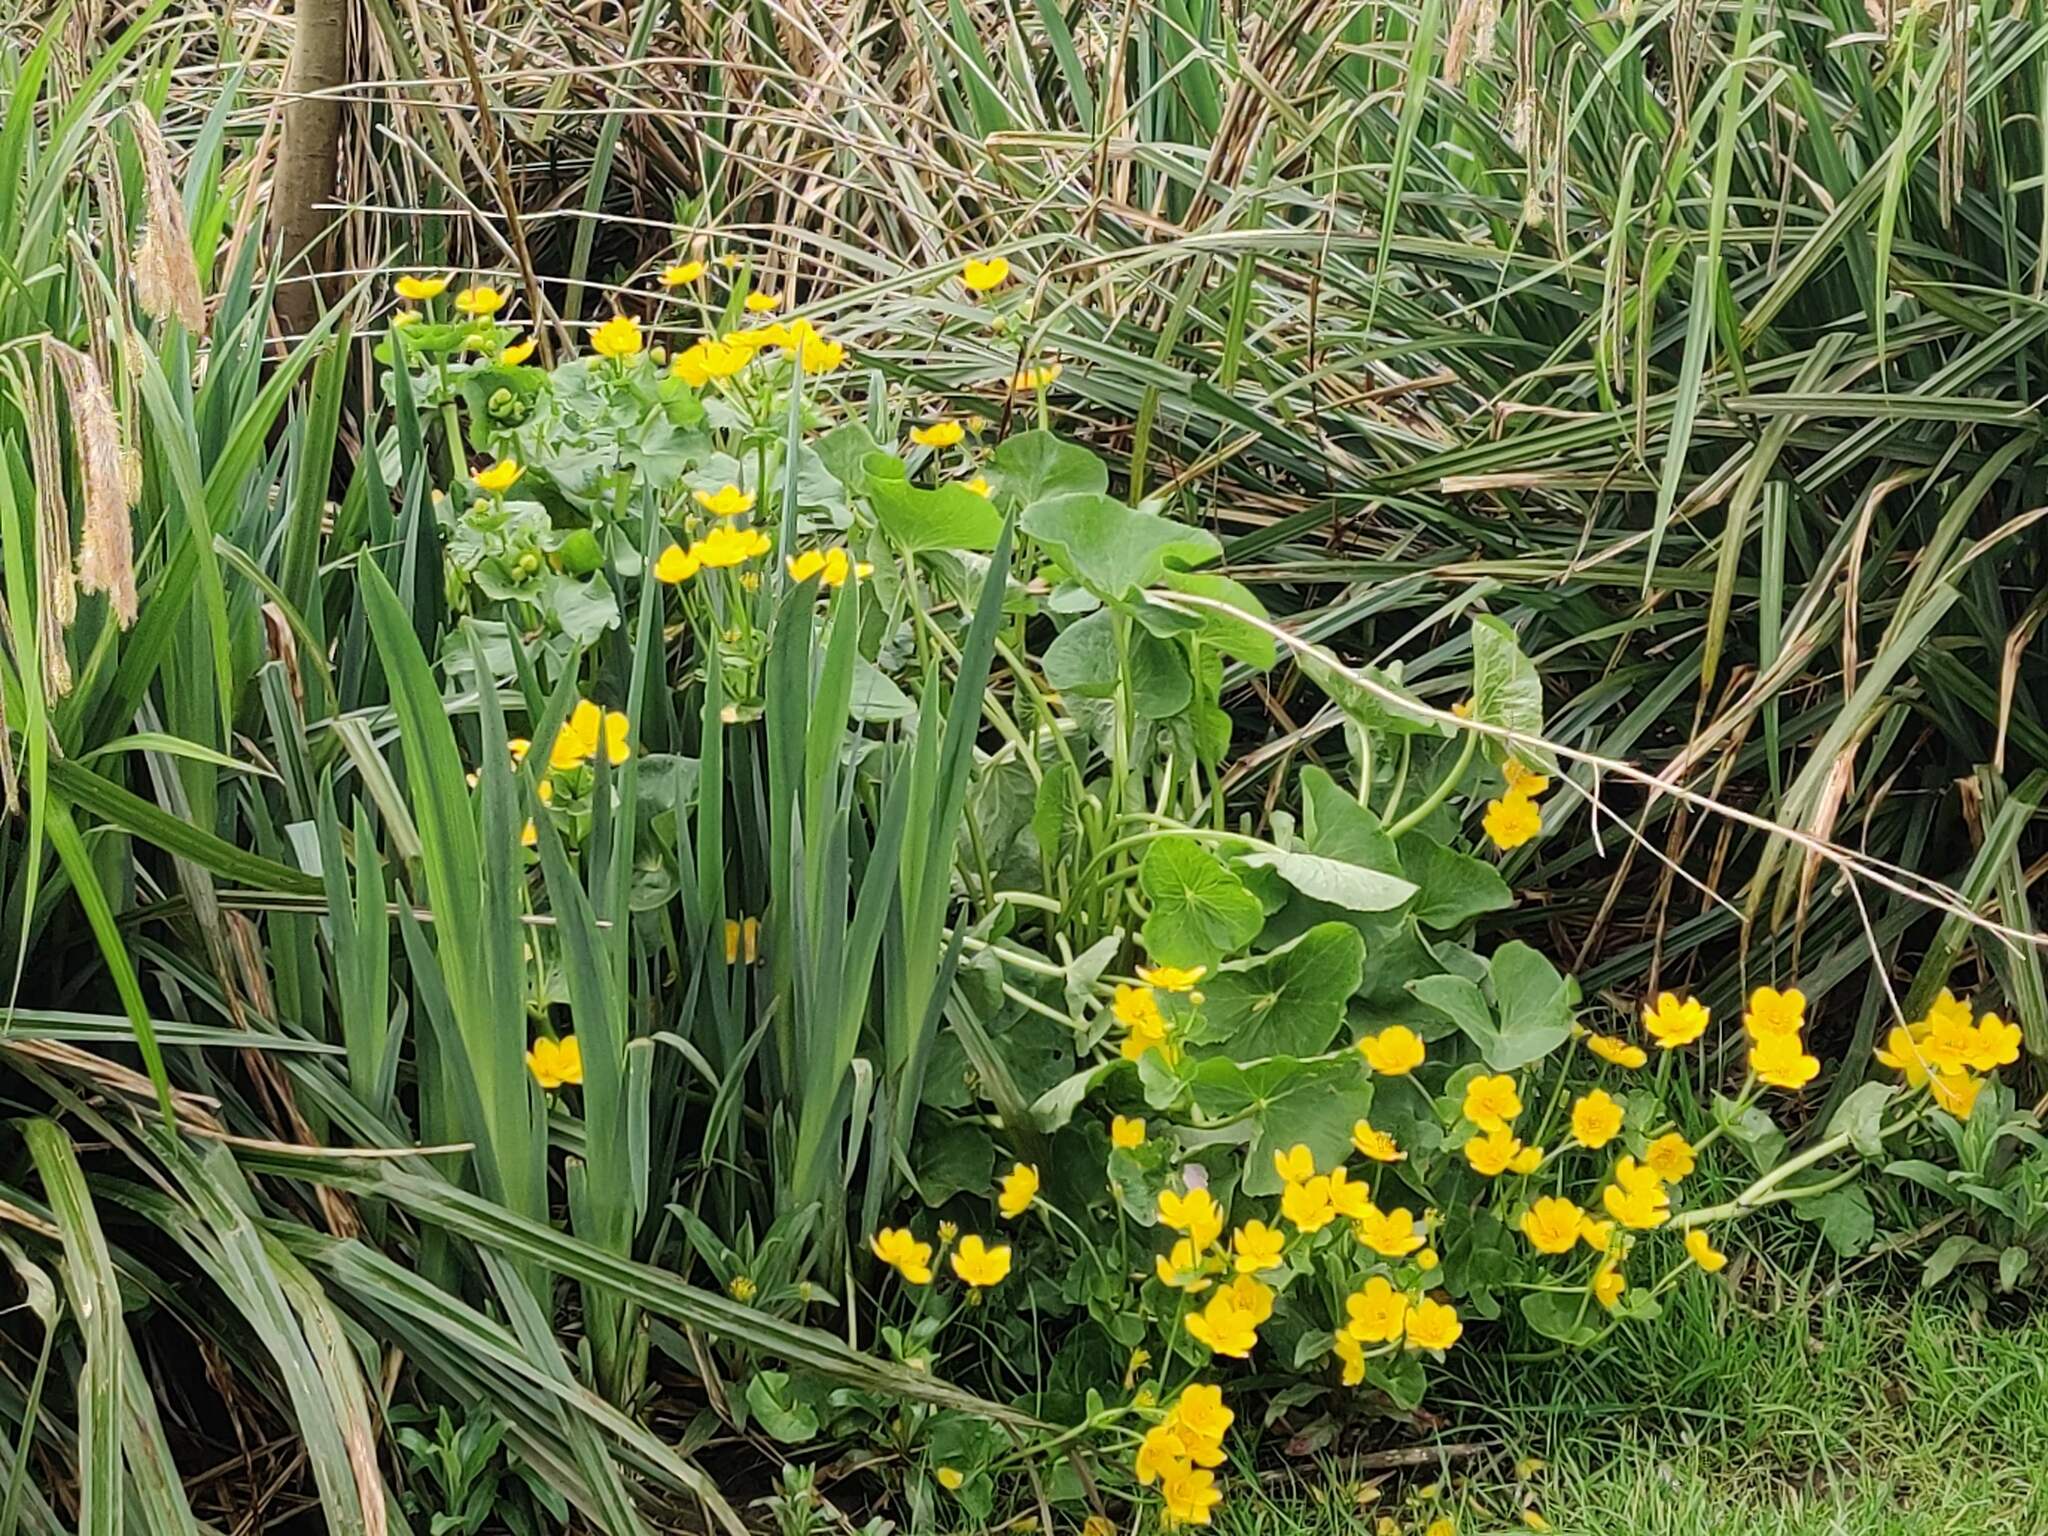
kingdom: Plantae
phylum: Tracheophyta
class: Magnoliopsida
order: Ranunculales
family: Ranunculaceae
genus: Caltha
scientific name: Caltha palustris
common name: Marsh marigold
